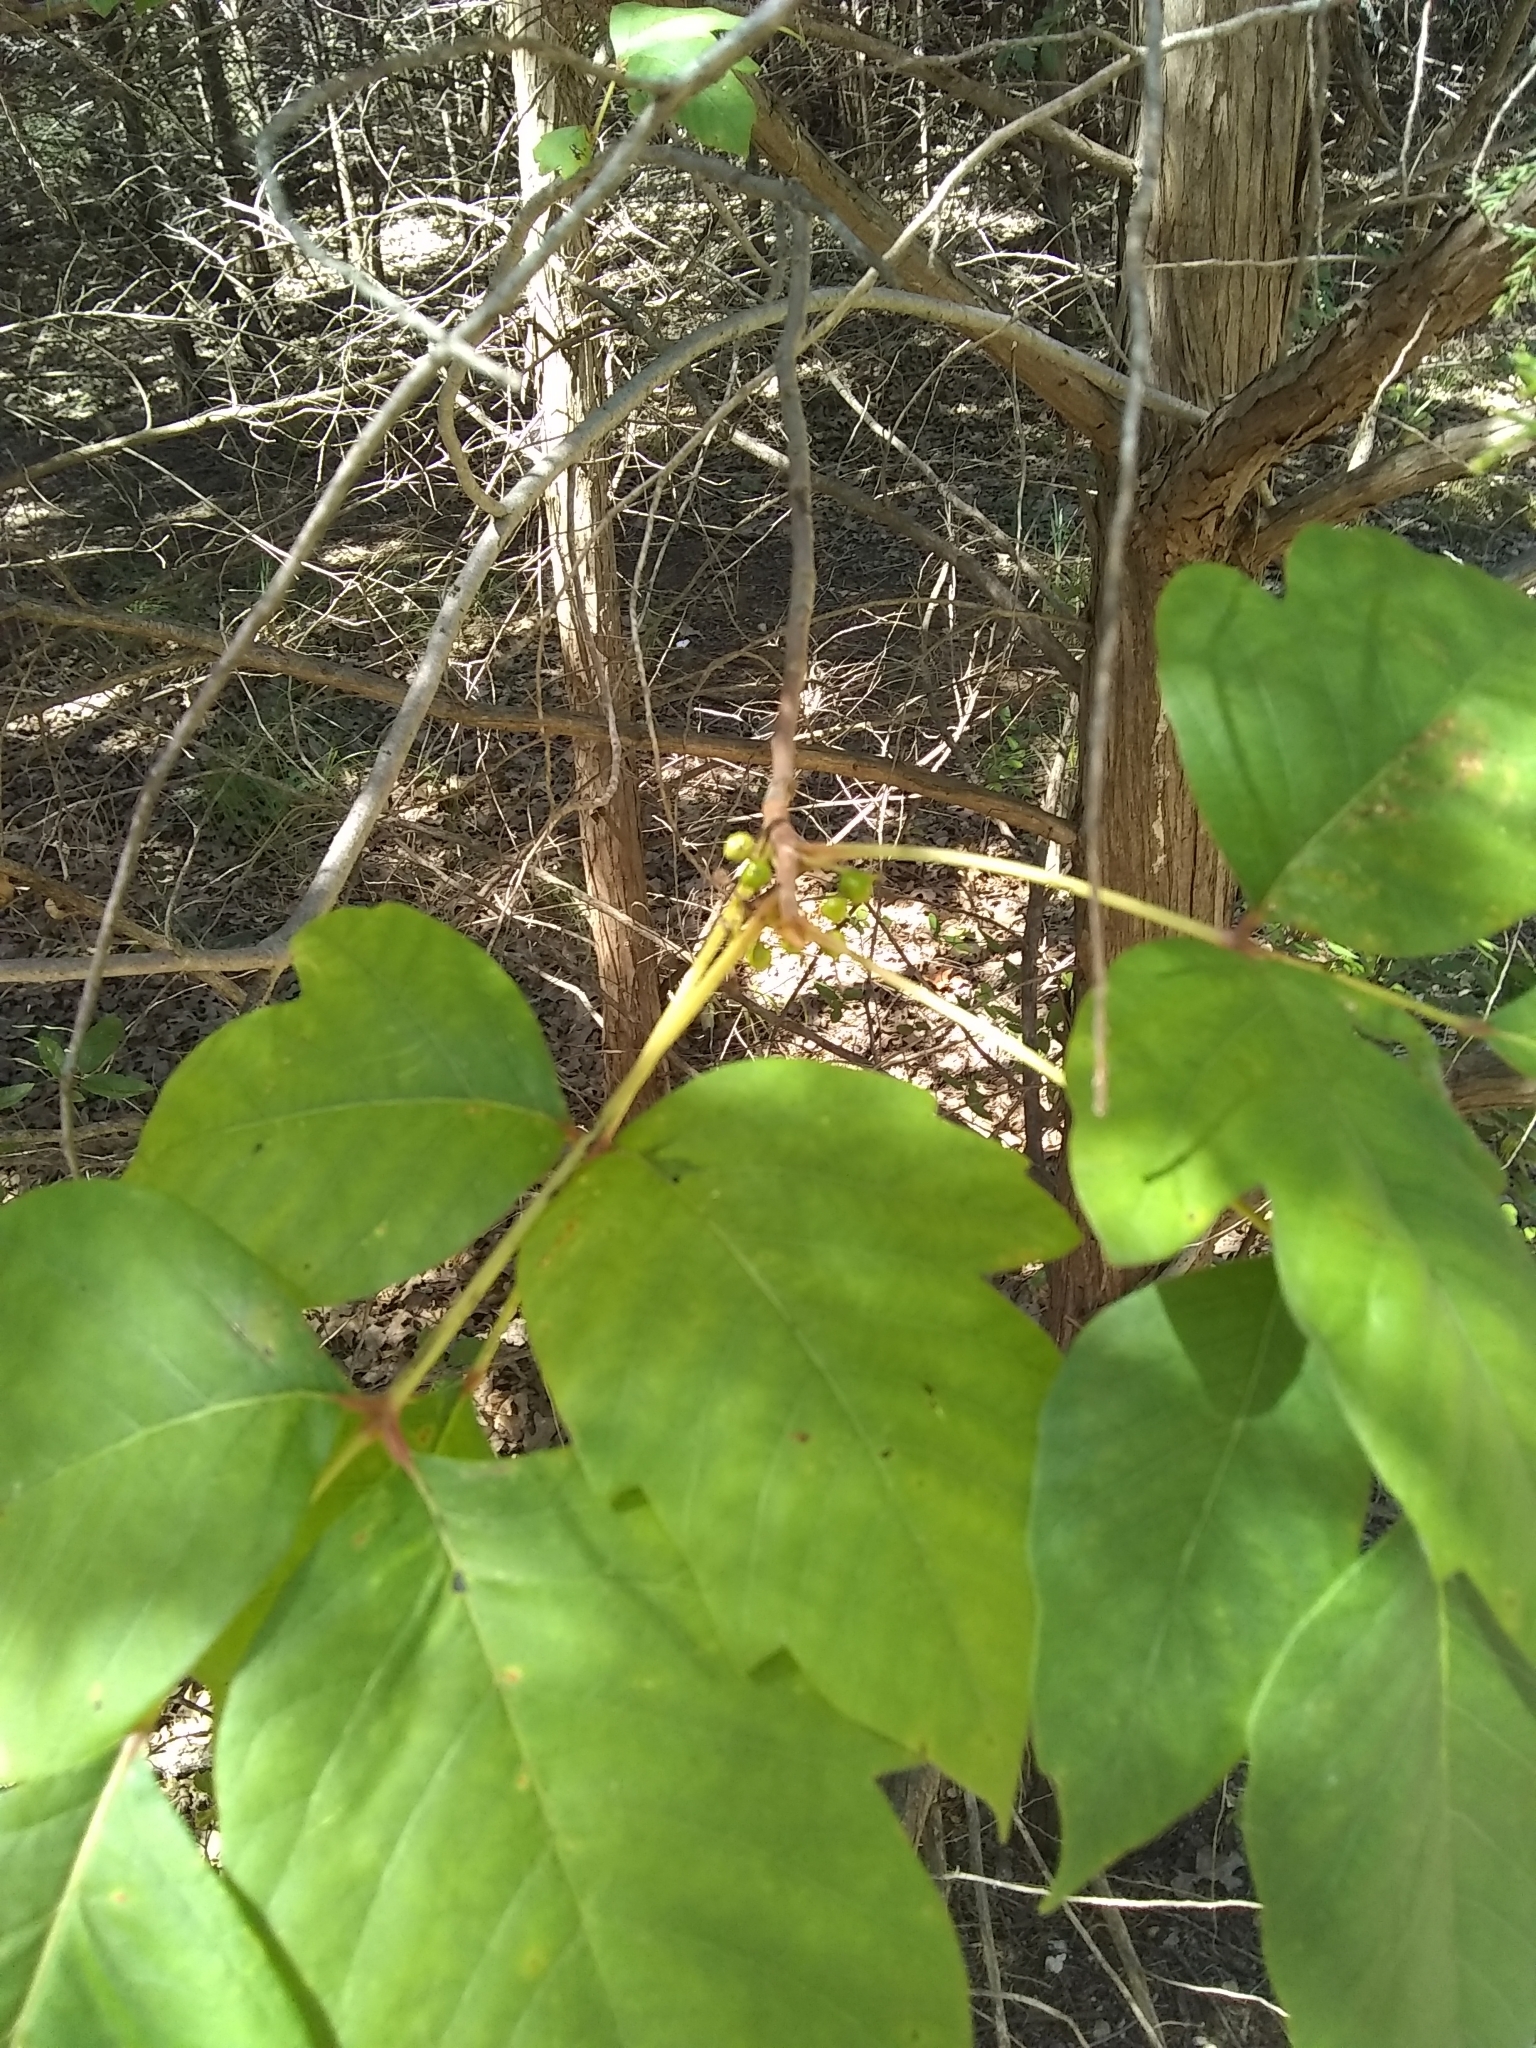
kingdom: Plantae
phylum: Tracheophyta
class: Magnoliopsida
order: Sapindales
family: Anacardiaceae
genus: Toxicodendron
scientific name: Toxicodendron radicans
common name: Poison ivy
